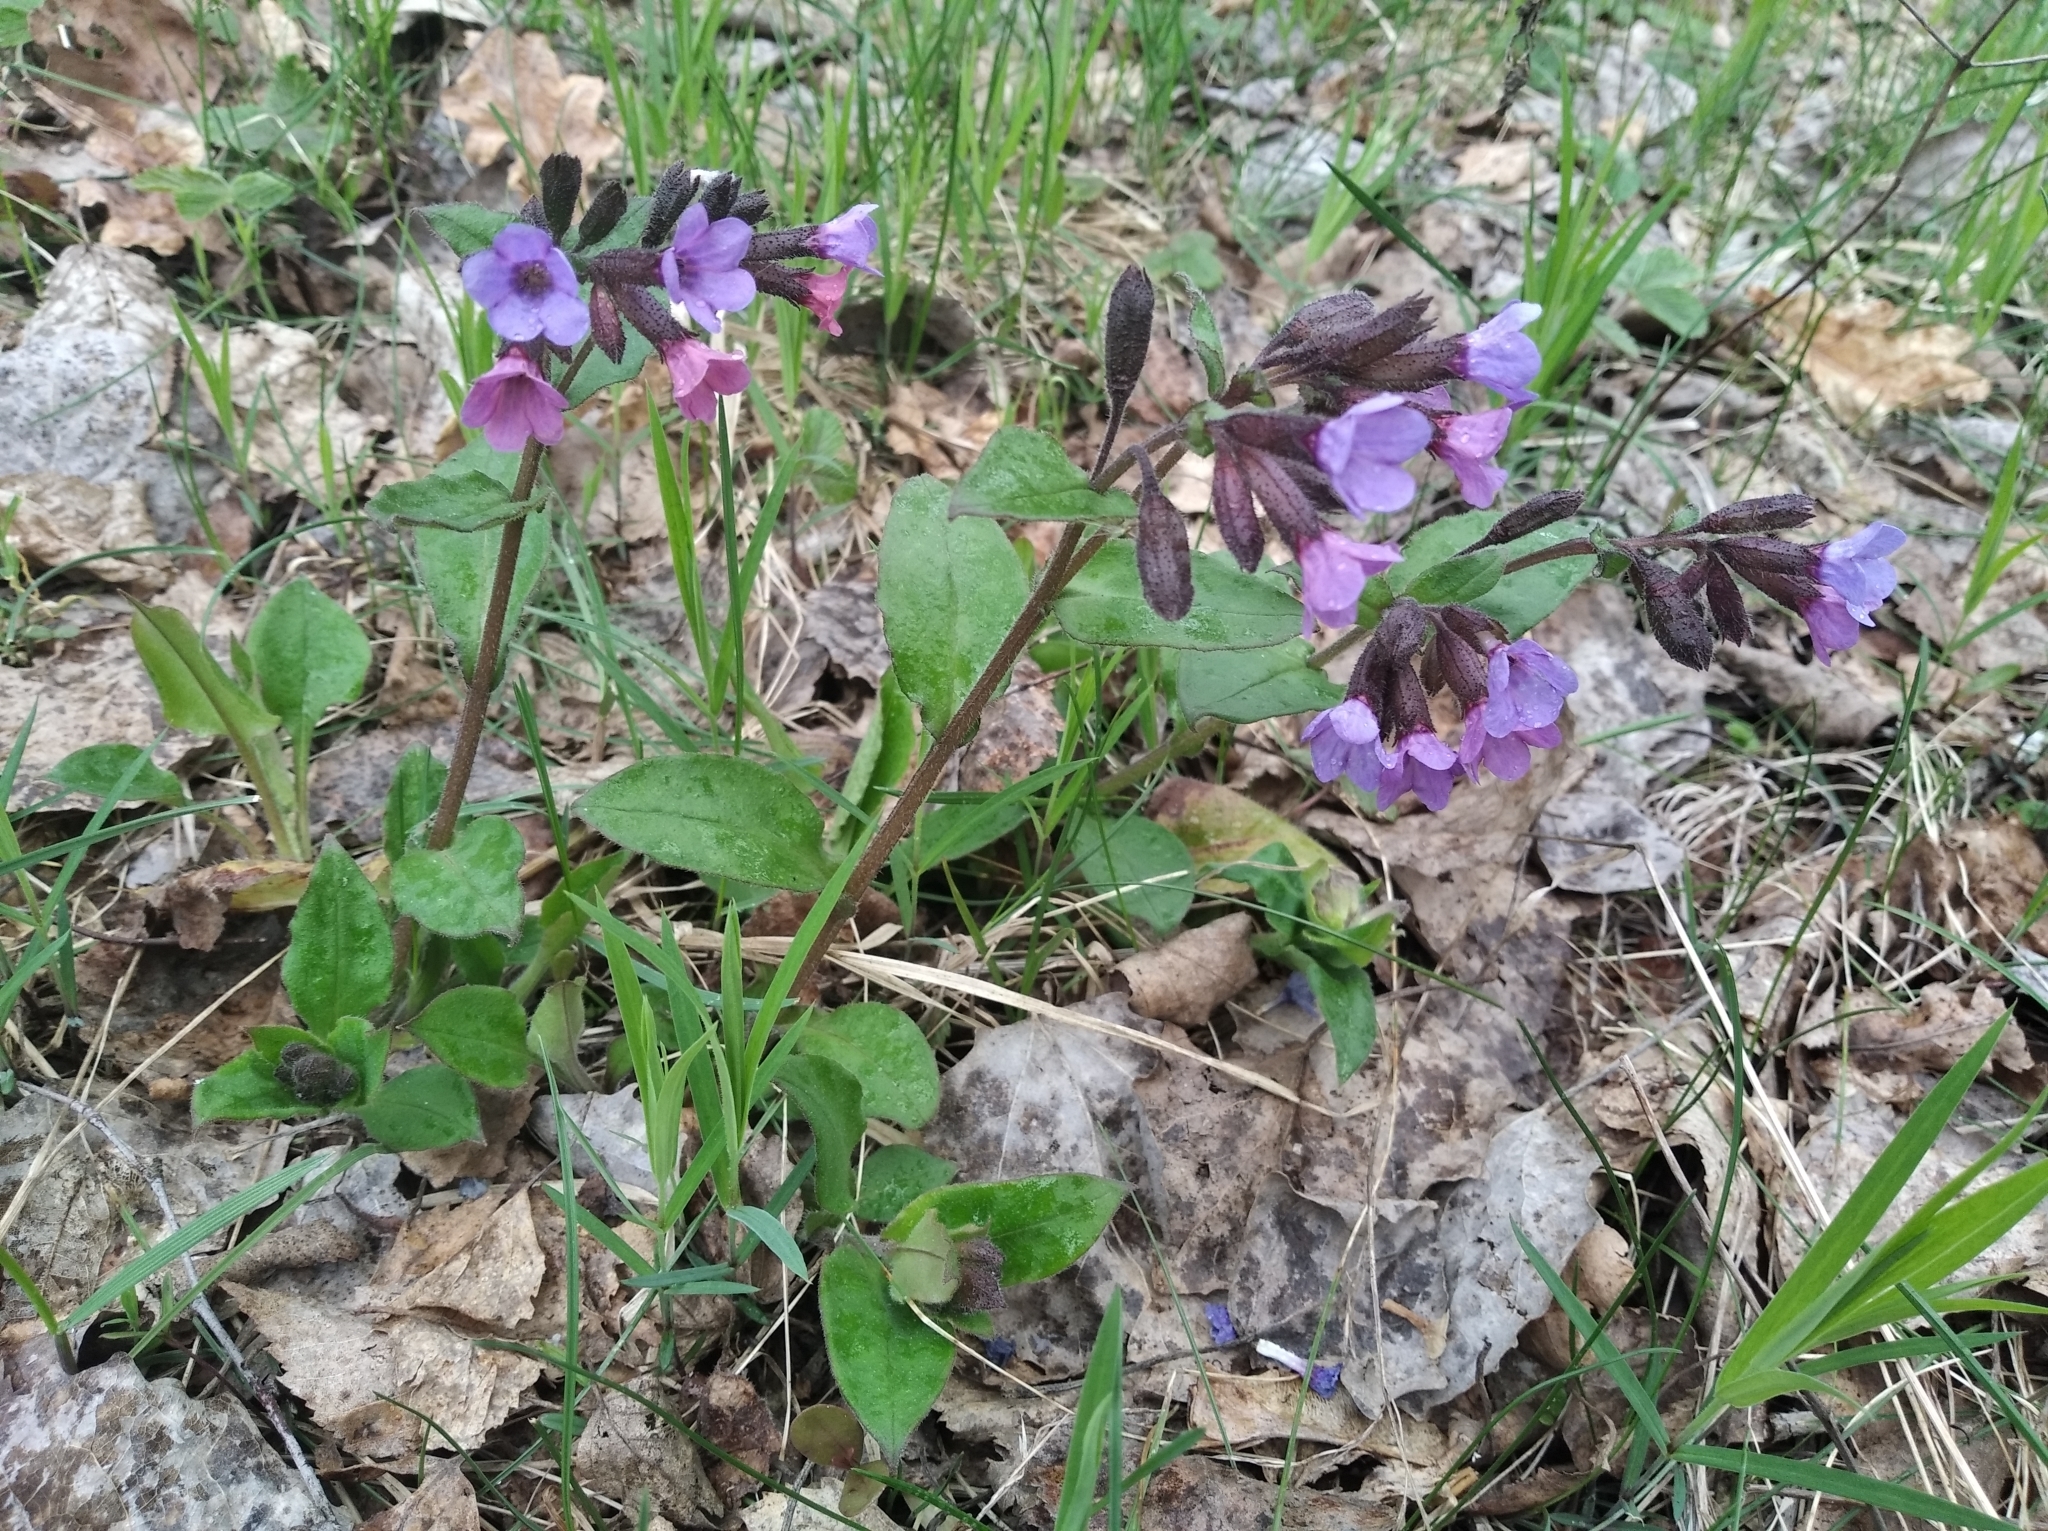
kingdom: Plantae
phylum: Tracheophyta
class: Magnoliopsida
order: Boraginales
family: Boraginaceae
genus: Pulmonaria
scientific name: Pulmonaria obscura
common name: Suffolk lungwort
